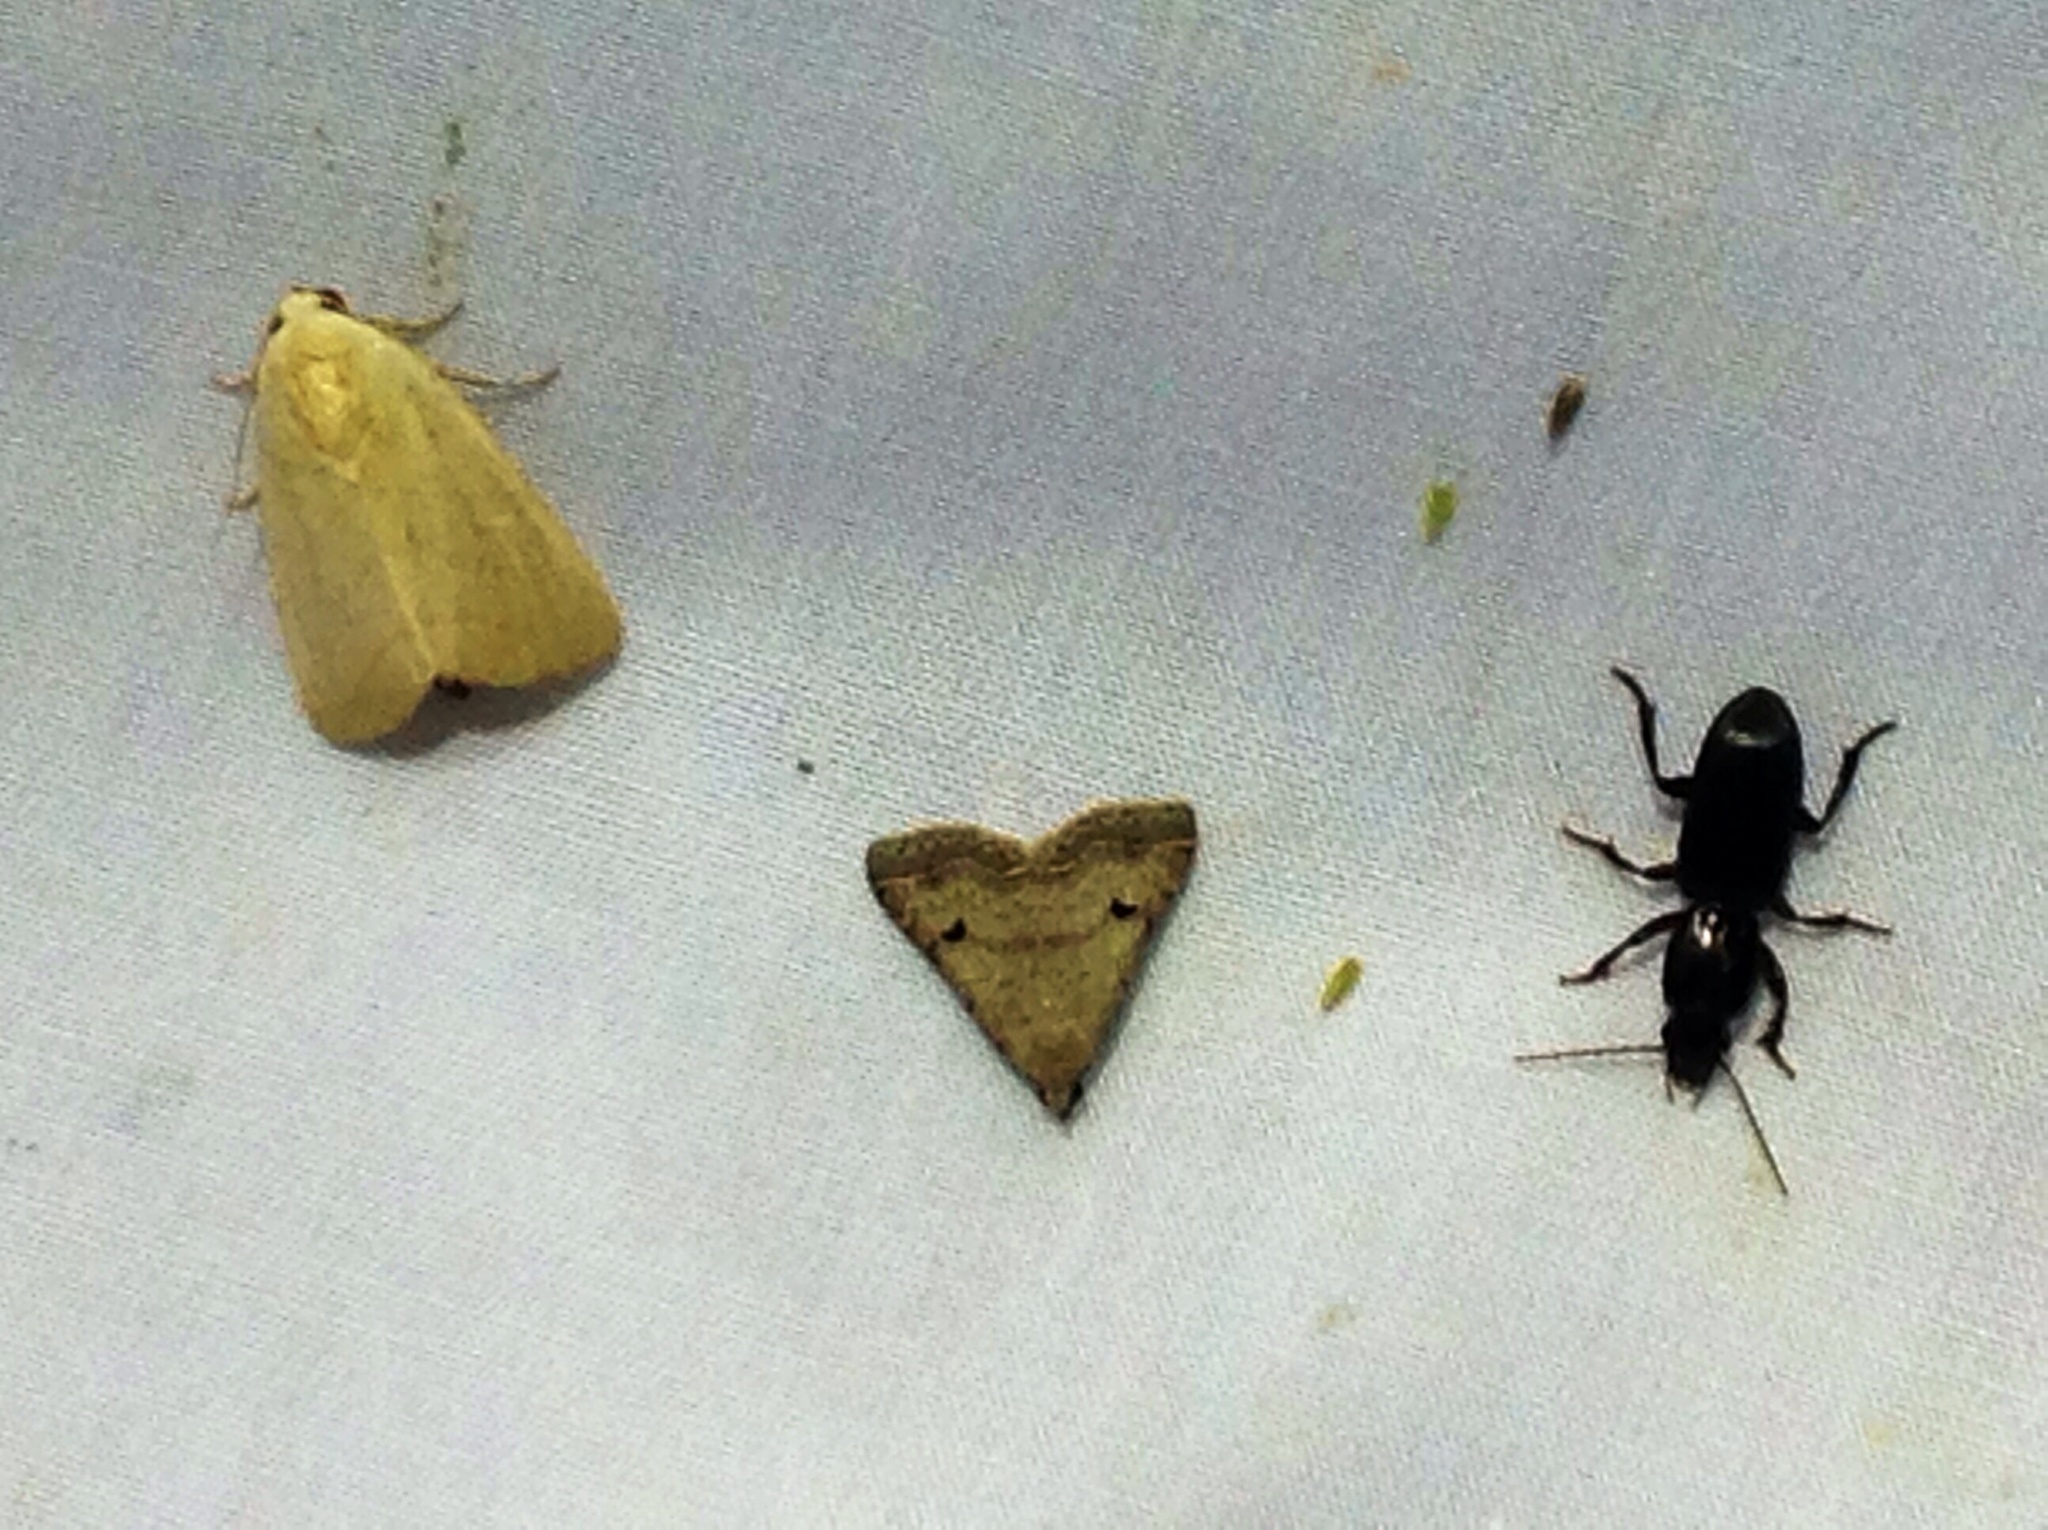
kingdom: Animalia
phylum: Arthropoda
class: Insecta
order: Lepidoptera
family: Noctuidae
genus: Bagisara
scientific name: Bagisara buxea
